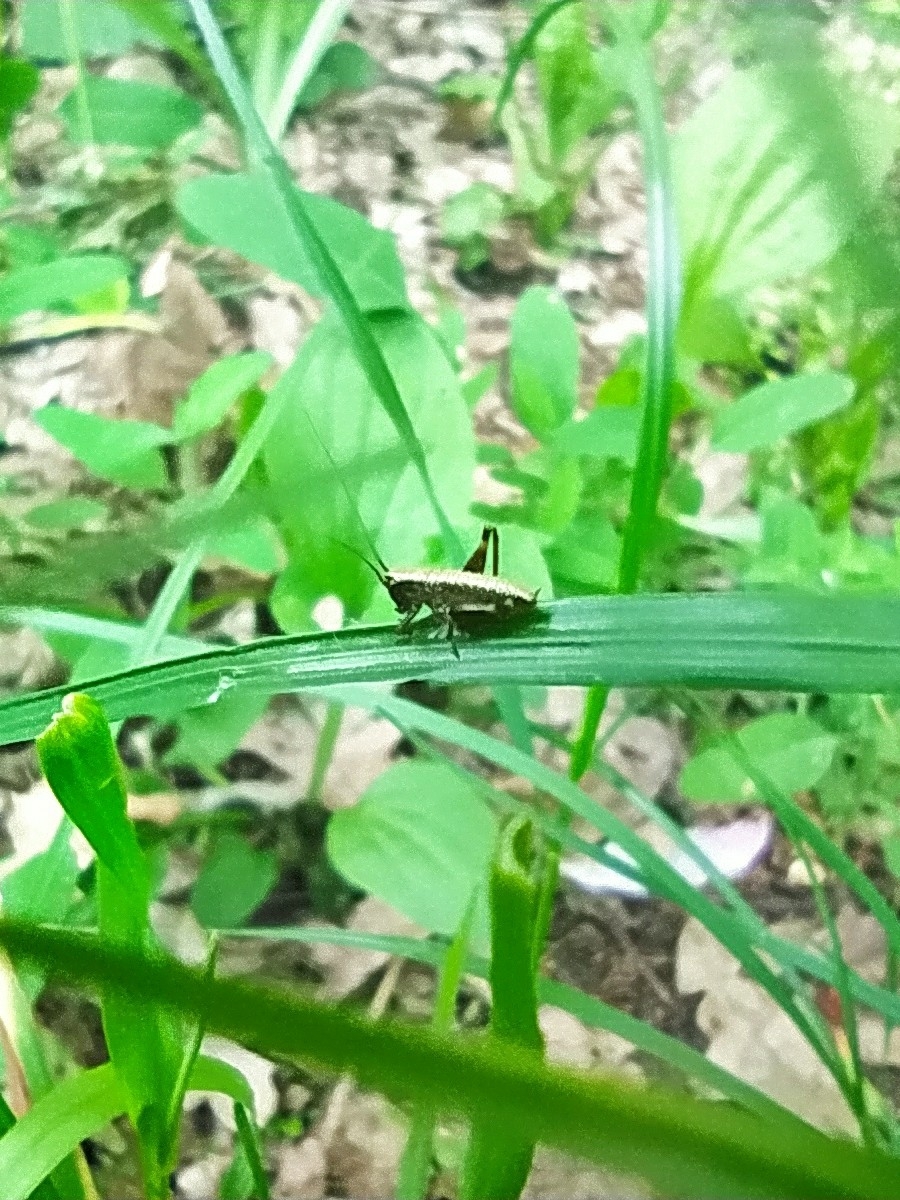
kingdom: Animalia
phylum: Arthropoda
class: Insecta
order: Orthoptera
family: Tettigoniidae
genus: Pholidoptera
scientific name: Pholidoptera griseoaptera
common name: Dark bush-cricket
